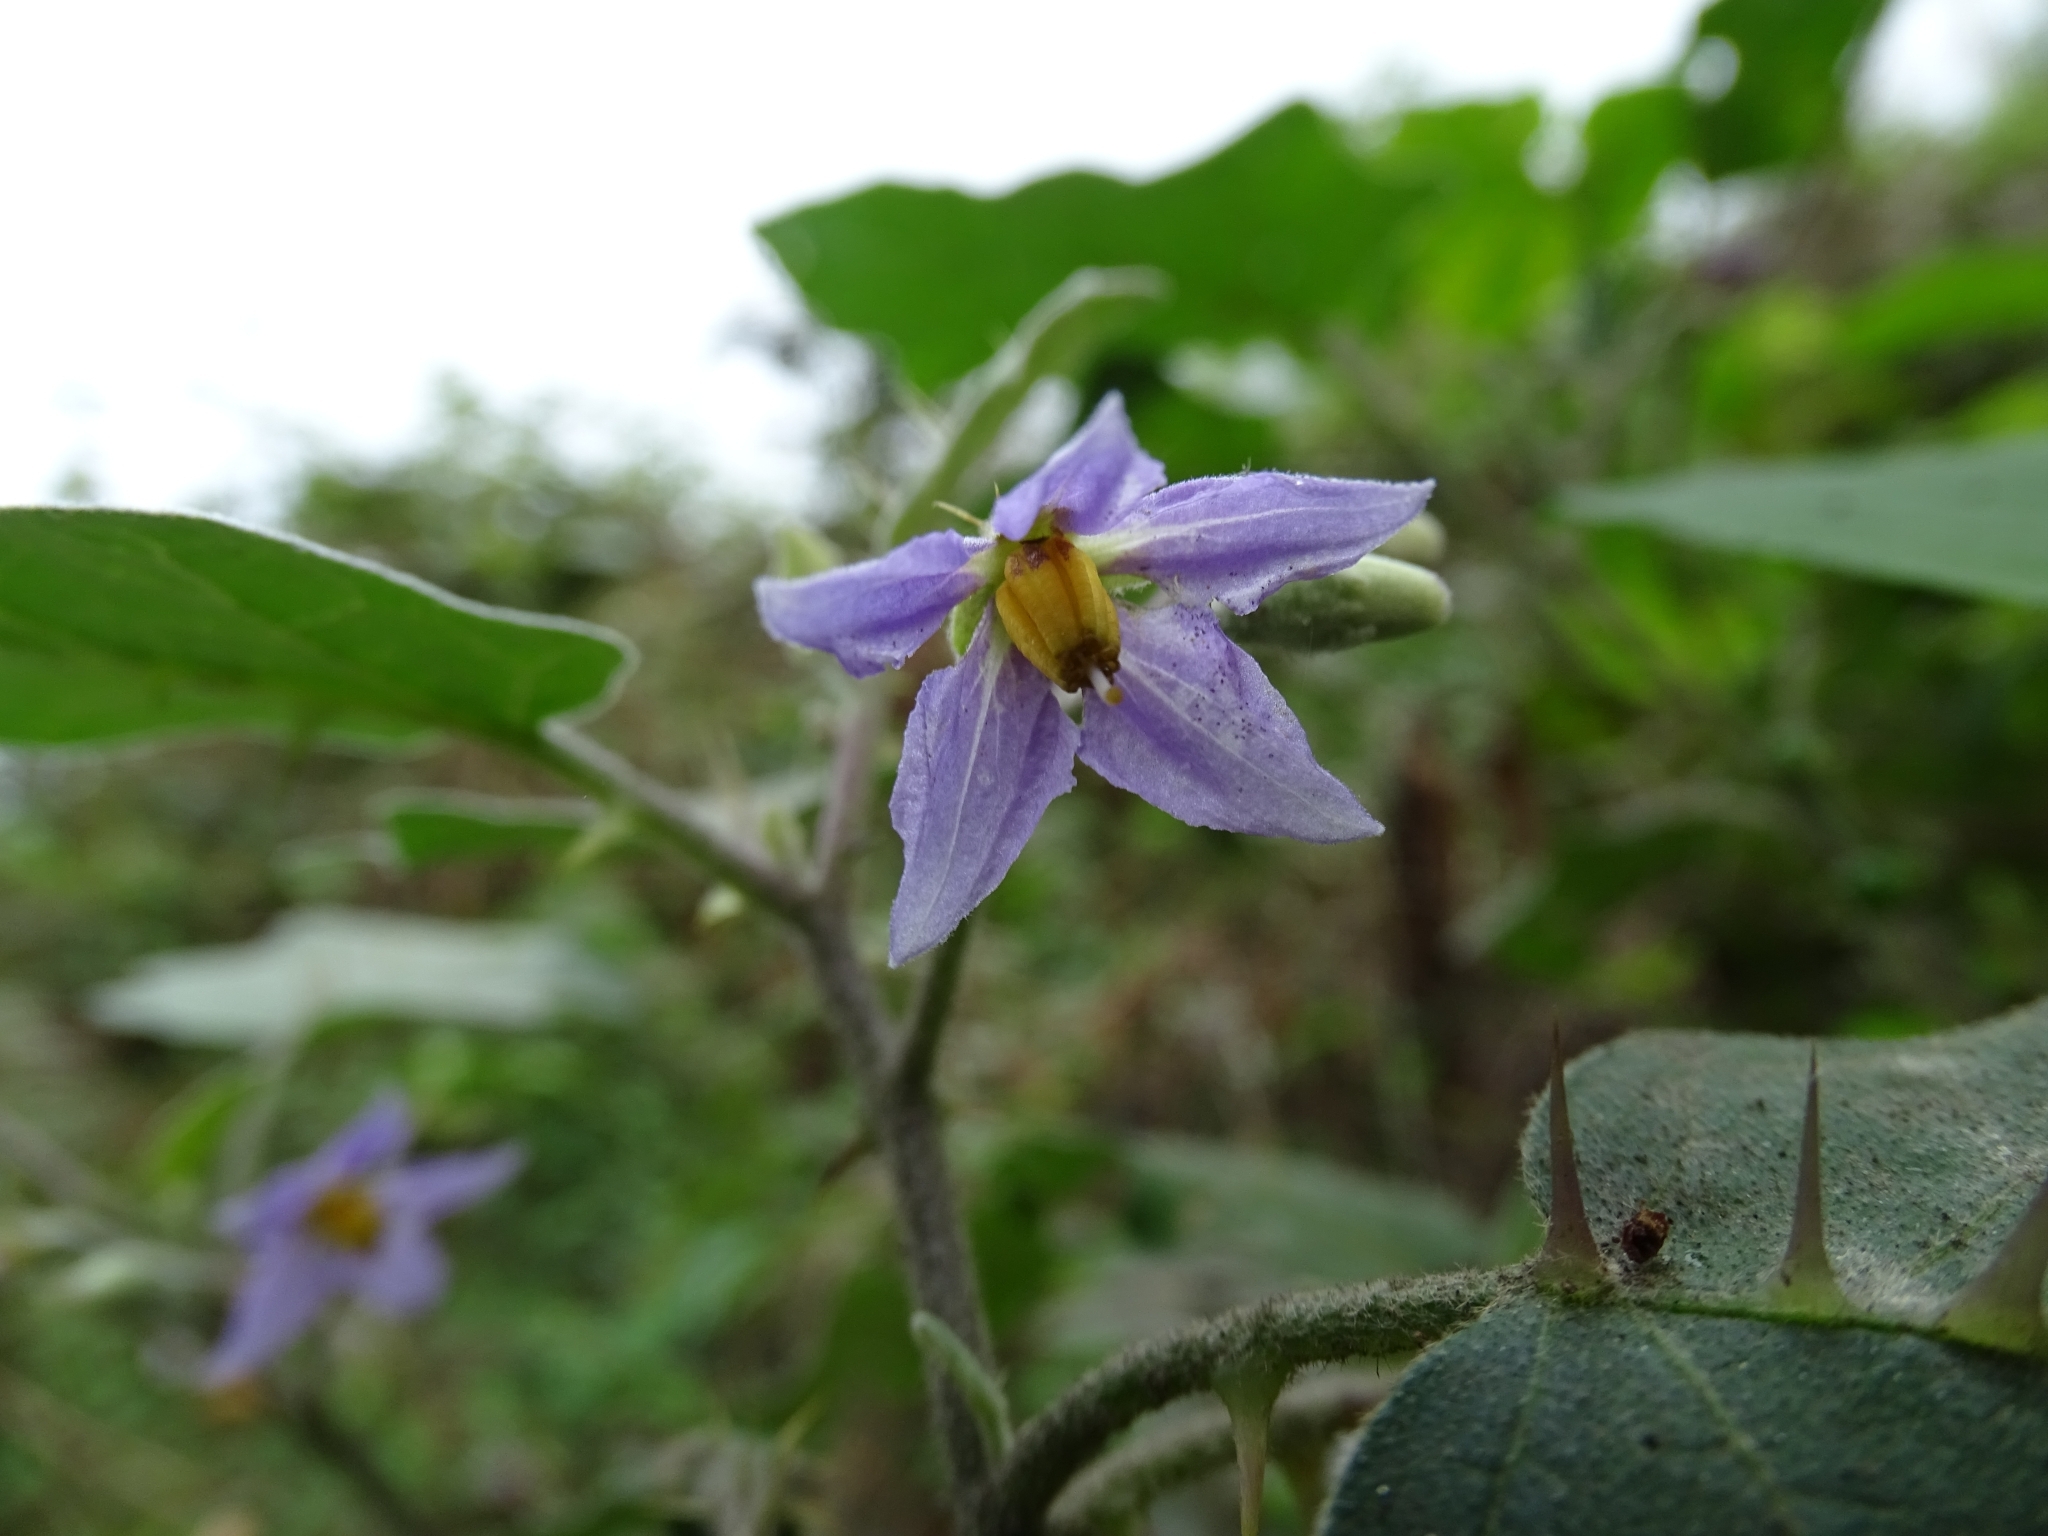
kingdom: Plantae
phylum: Tracheophyta
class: Magnoliopsida
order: Solanales
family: Solanaceae
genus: Solanum
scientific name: Solanum violaceum
